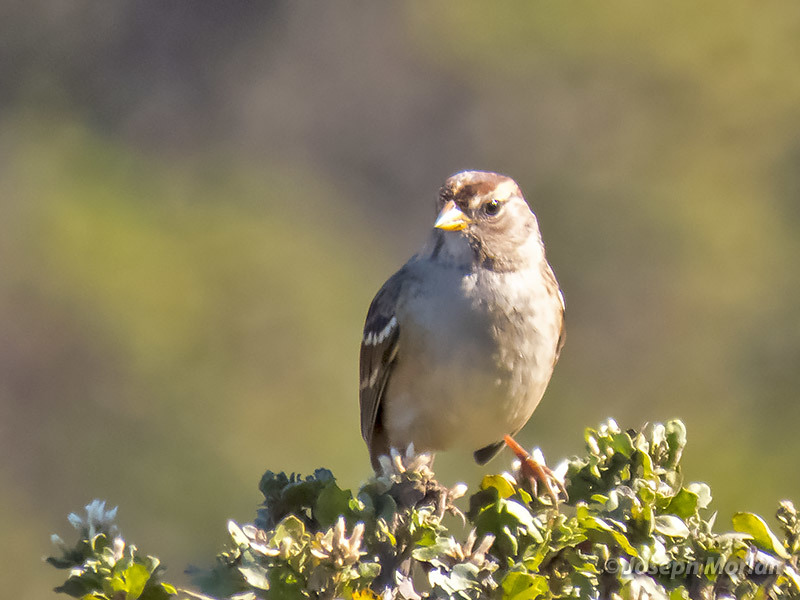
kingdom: Animalia
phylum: Chordata
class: Aves
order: Passeriformes
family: Passerellidae
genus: Zonotrichia
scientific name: Zonotrichia leucophrys
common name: White-crowned sparrow
